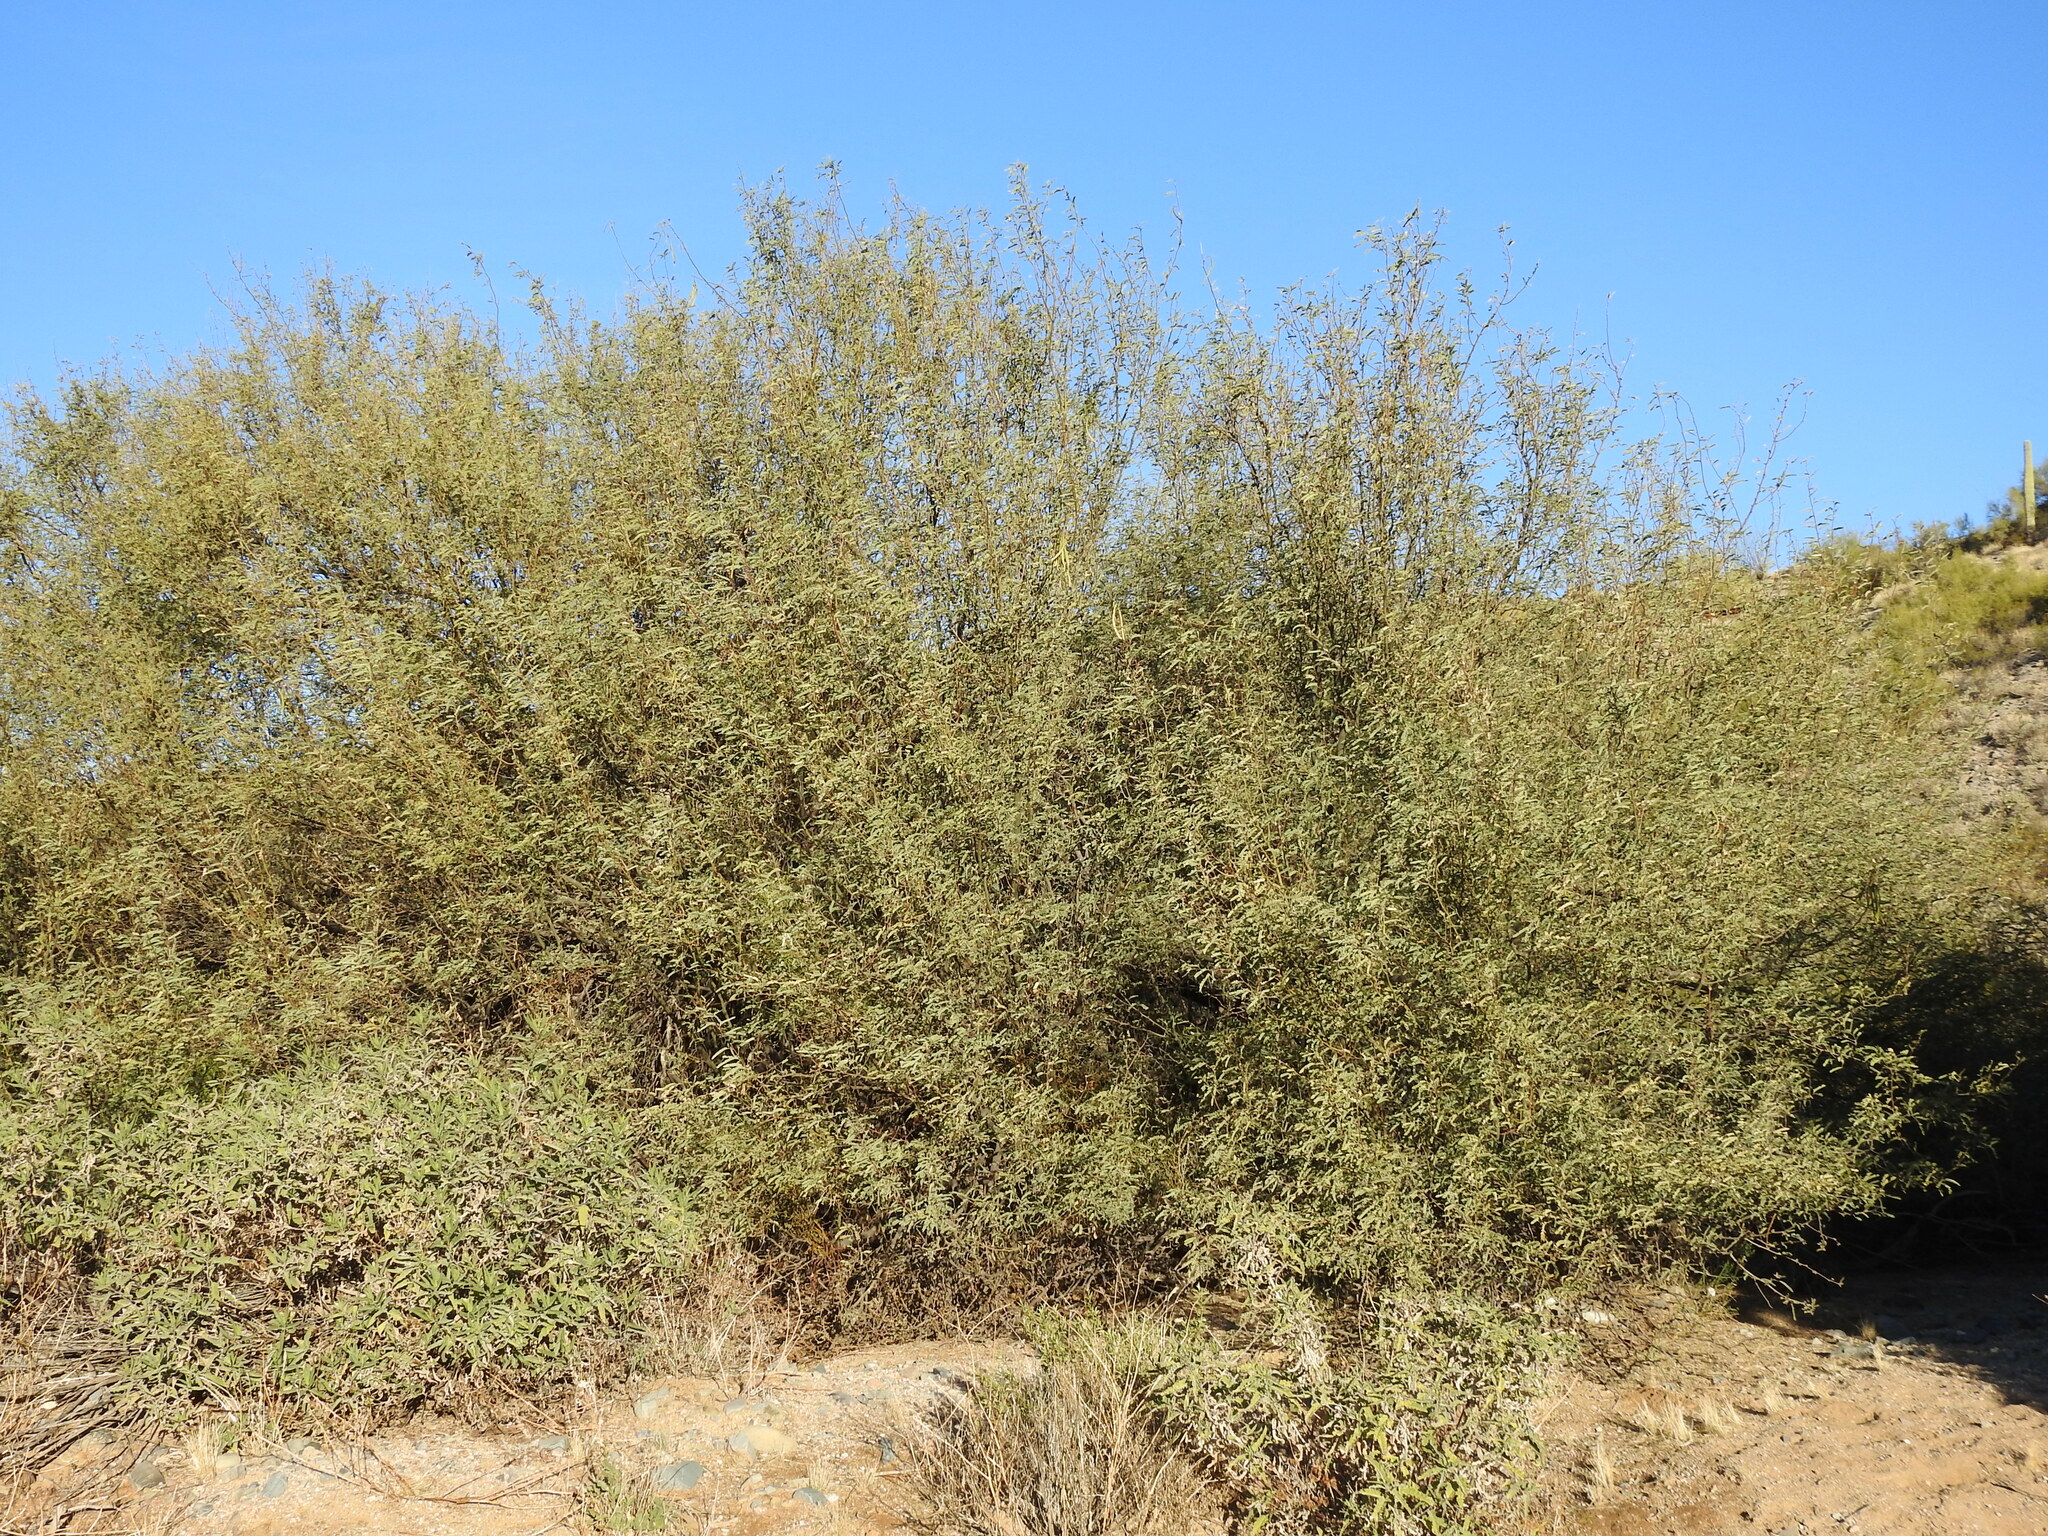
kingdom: Plantae
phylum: Tracheophyta
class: Magnoliopsida
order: Fabales
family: Fabaceae
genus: Prosopis
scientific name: Prosopis velutina
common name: Velvet mesquite
